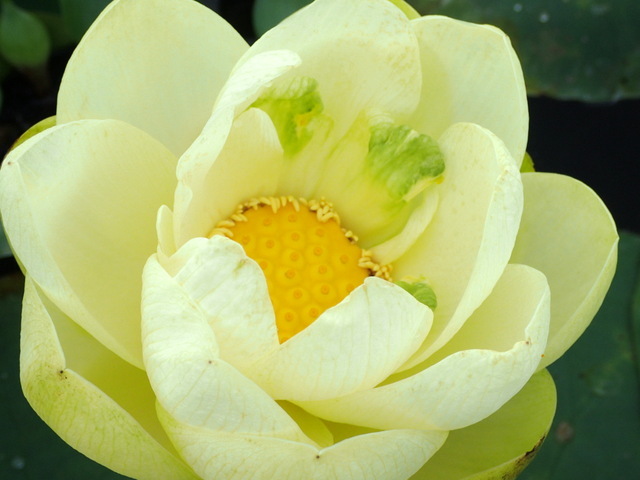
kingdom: Plantae
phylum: Tracheophyta
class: Magnoliopsida
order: Proteales
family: Nelumbonaceae
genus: Nelumbo
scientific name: Nelumbo lutea
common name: American lotus
